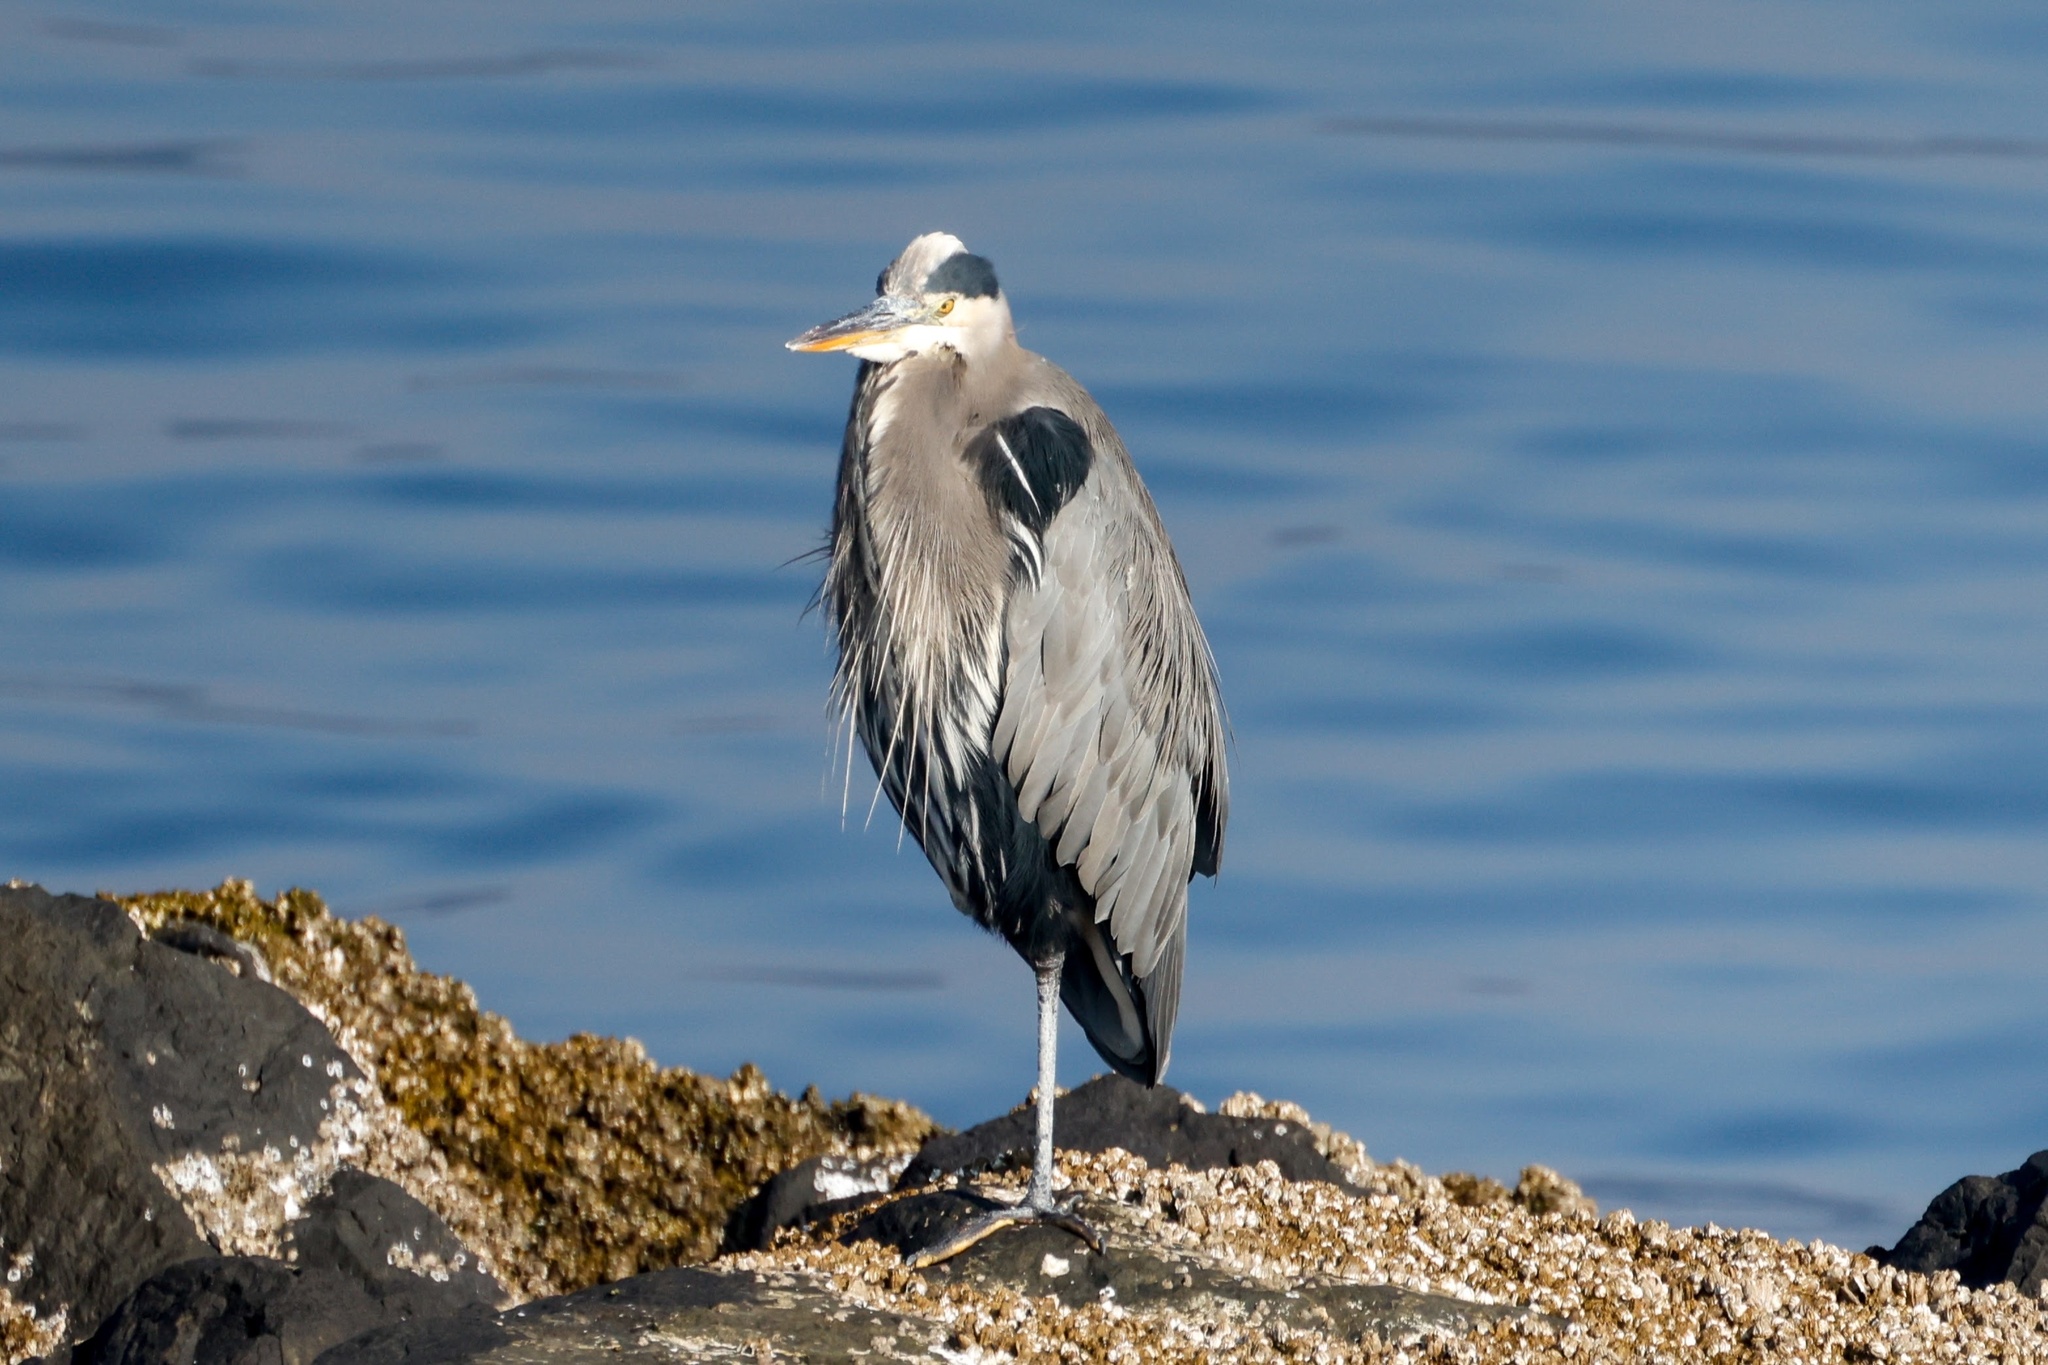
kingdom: Animalia
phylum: Chordata
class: Aves
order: Pelecaniformes
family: Ardeidae
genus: Ardea
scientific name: Ardea herodias
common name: Great blue heron
